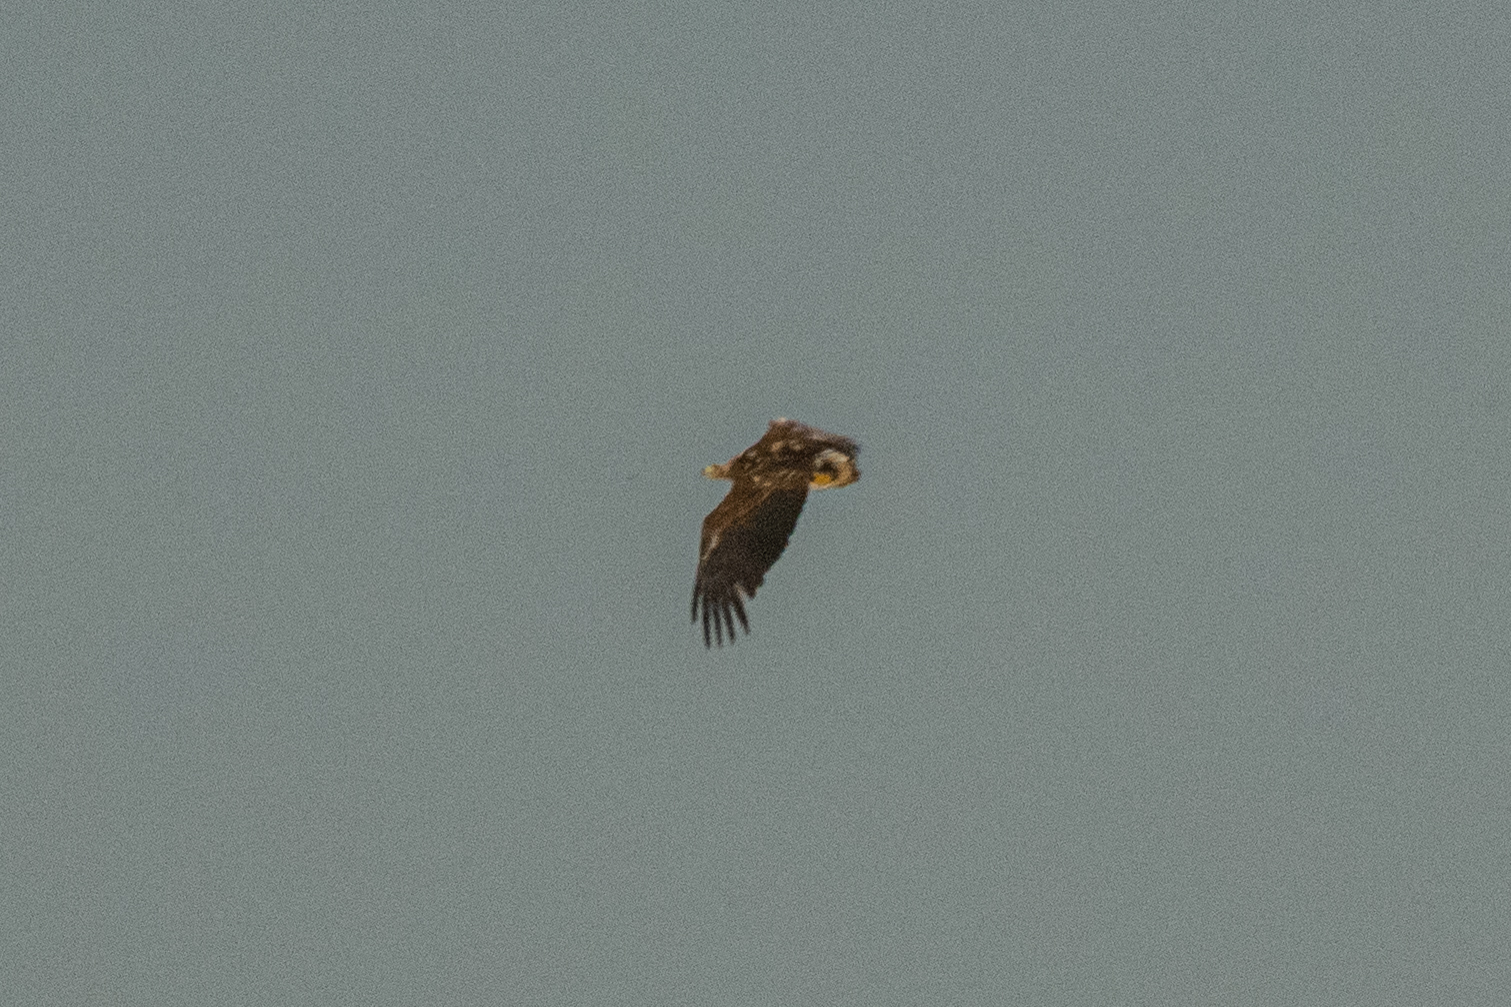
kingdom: Animalia
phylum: Chordata
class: Aves
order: Accipitriformes
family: Accipitridae
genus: Haliaeetus
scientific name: Haliaeetus albicilla
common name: White-tailed eagle
